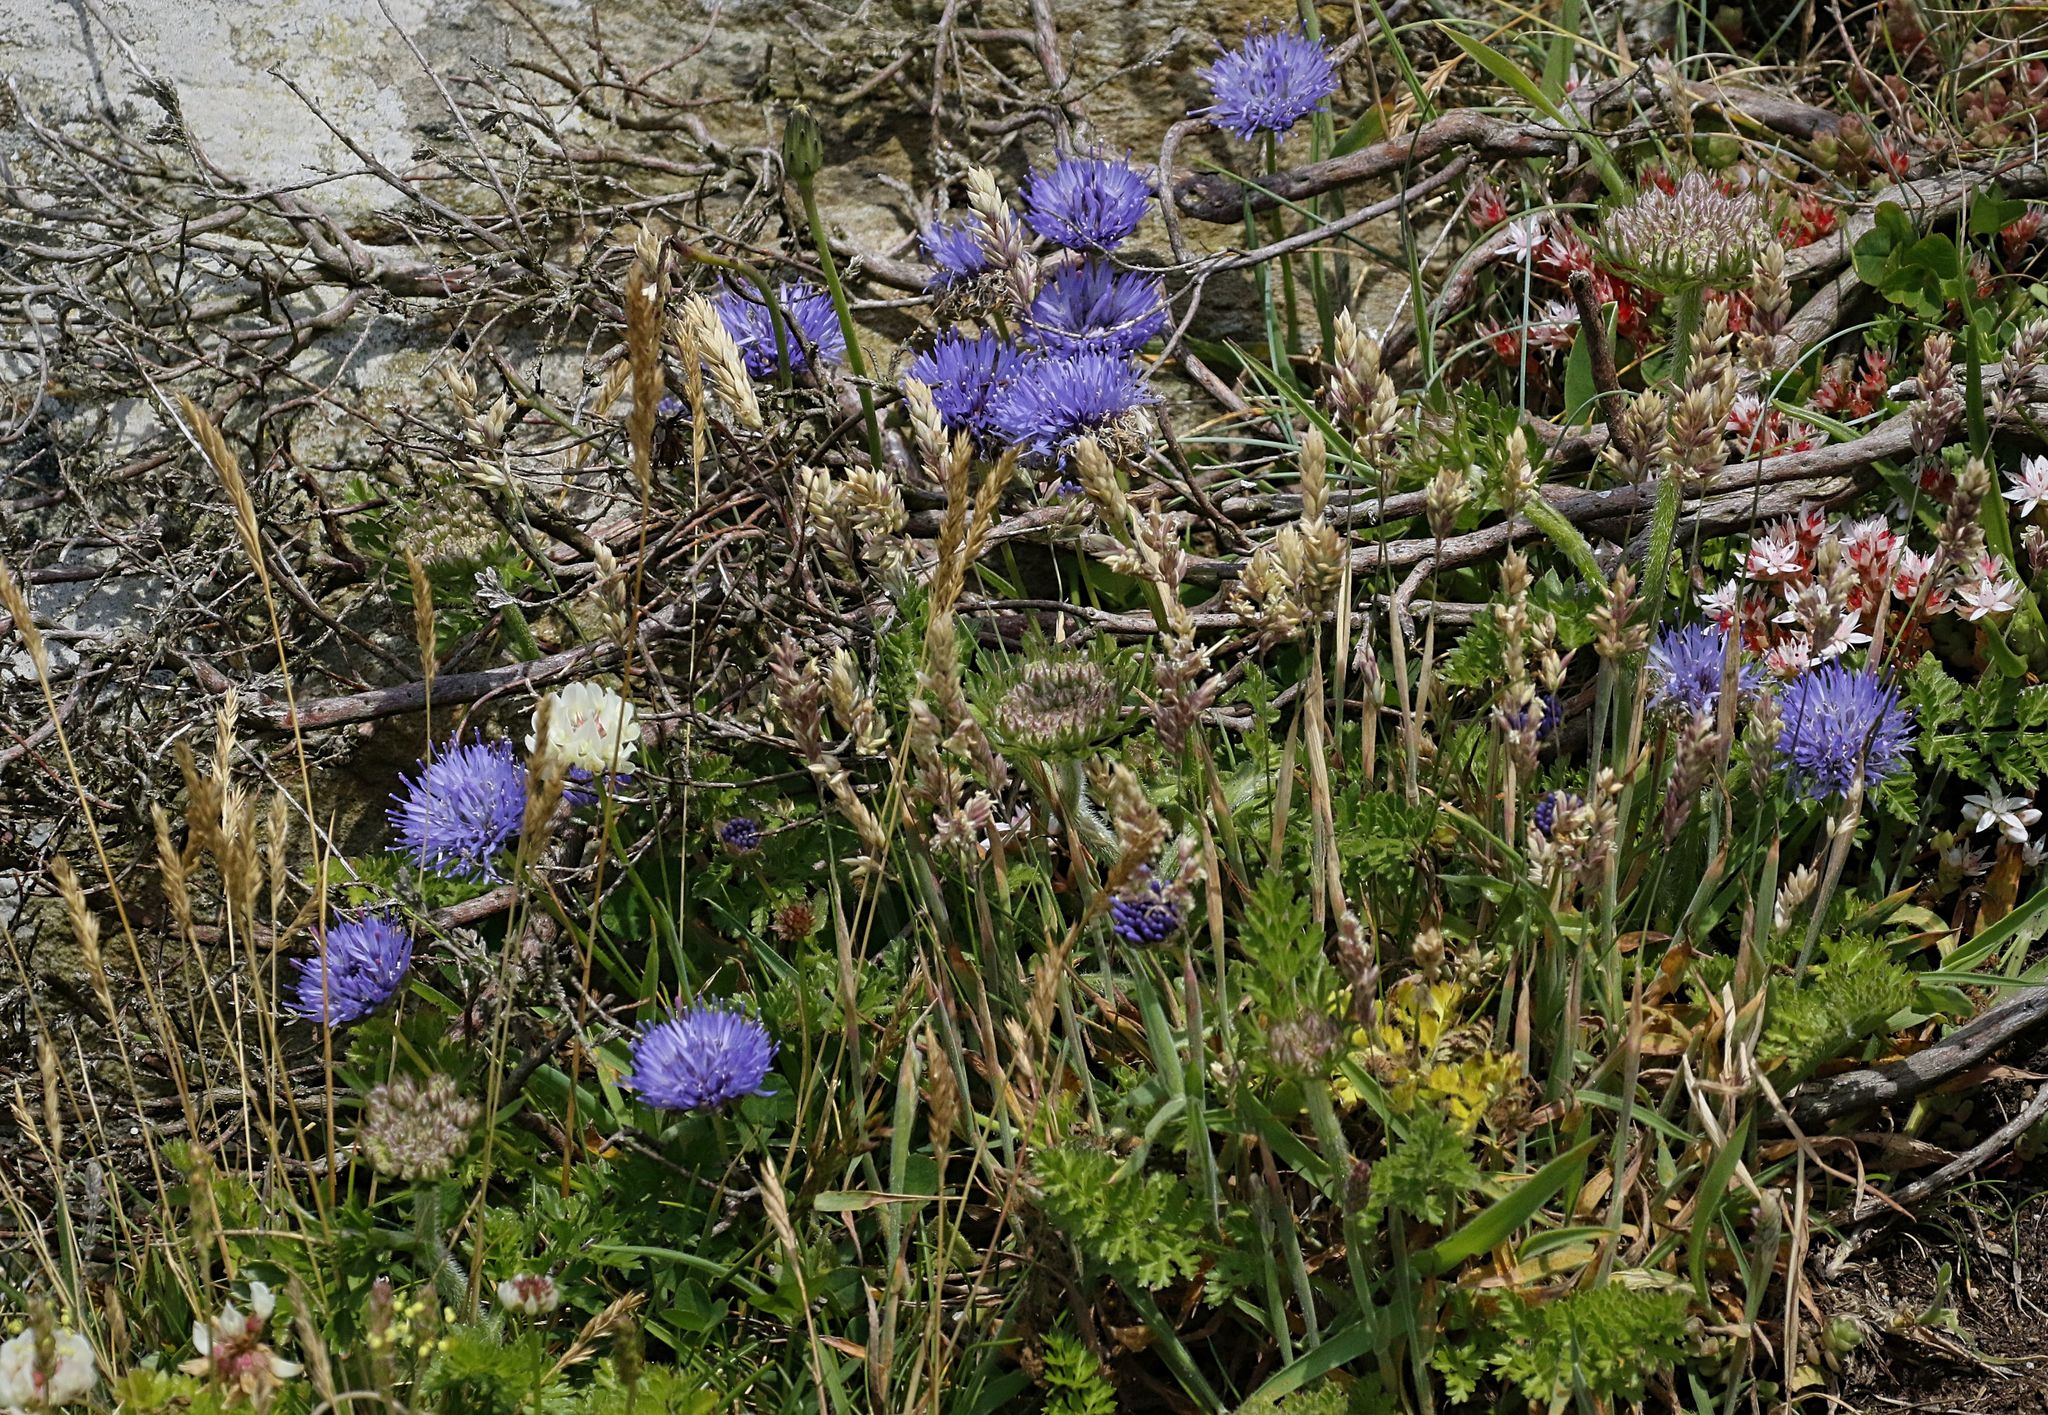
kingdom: Plantae
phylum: Tracheophyta
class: Magnoliopsida
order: Asterales
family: Campanulaceae
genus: Jasione
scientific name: Jasione montana
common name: Sheep's-bit
